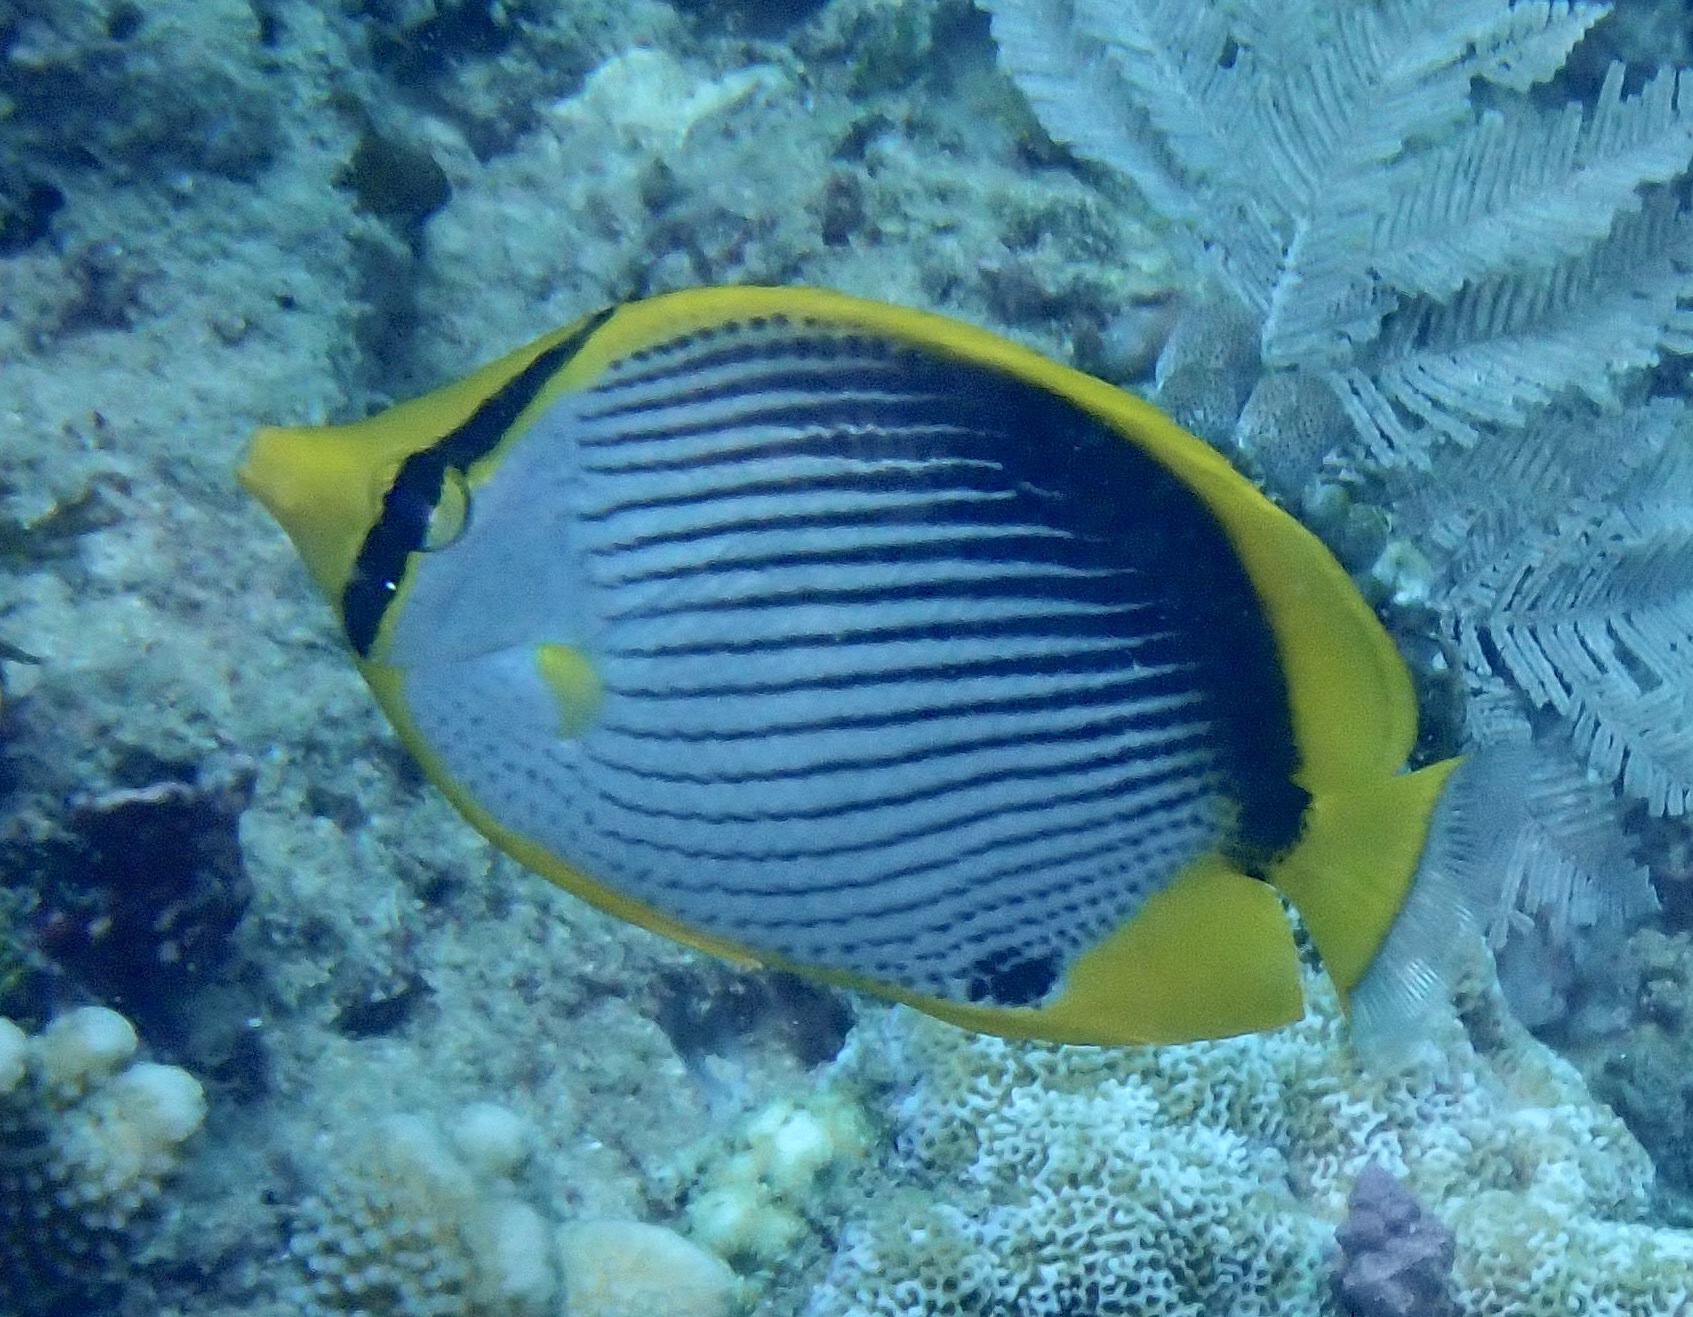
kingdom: Animalia
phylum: Chordata
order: Perciformes
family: Chaetodontidae
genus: Chaetodon
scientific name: Chaetodon melannotus
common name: Blackback butterflyfish
